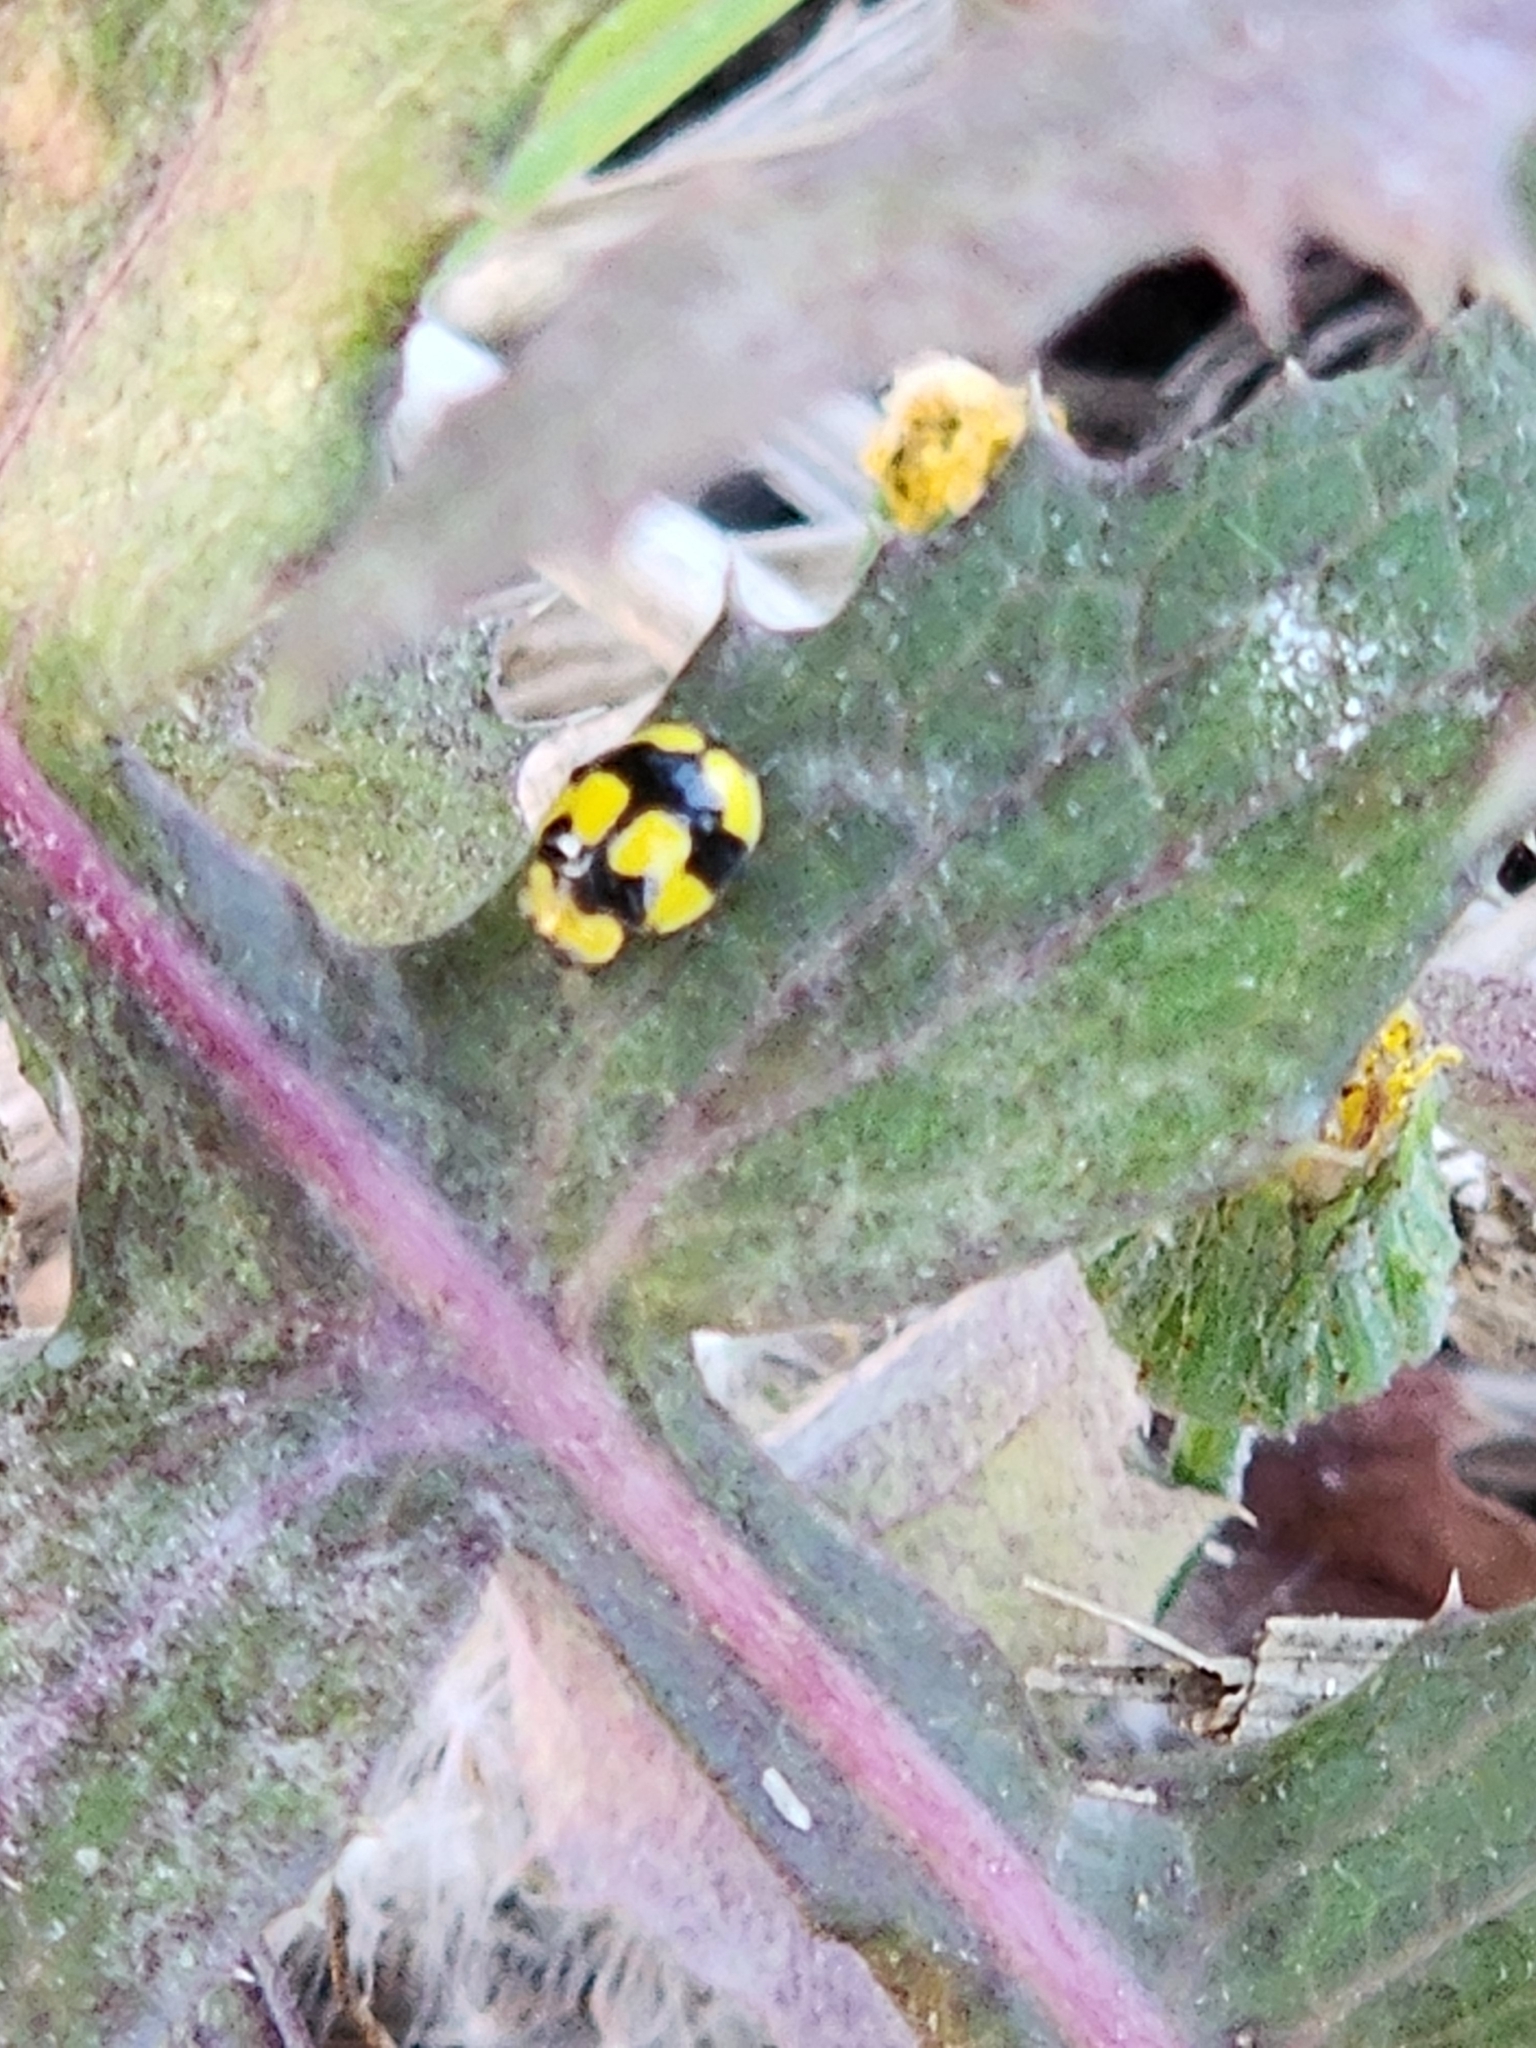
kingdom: Animalia
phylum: Arthropoda
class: Insecta
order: Coleoptera
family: Coccinellidae
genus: Illeis
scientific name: Illeis galbula
